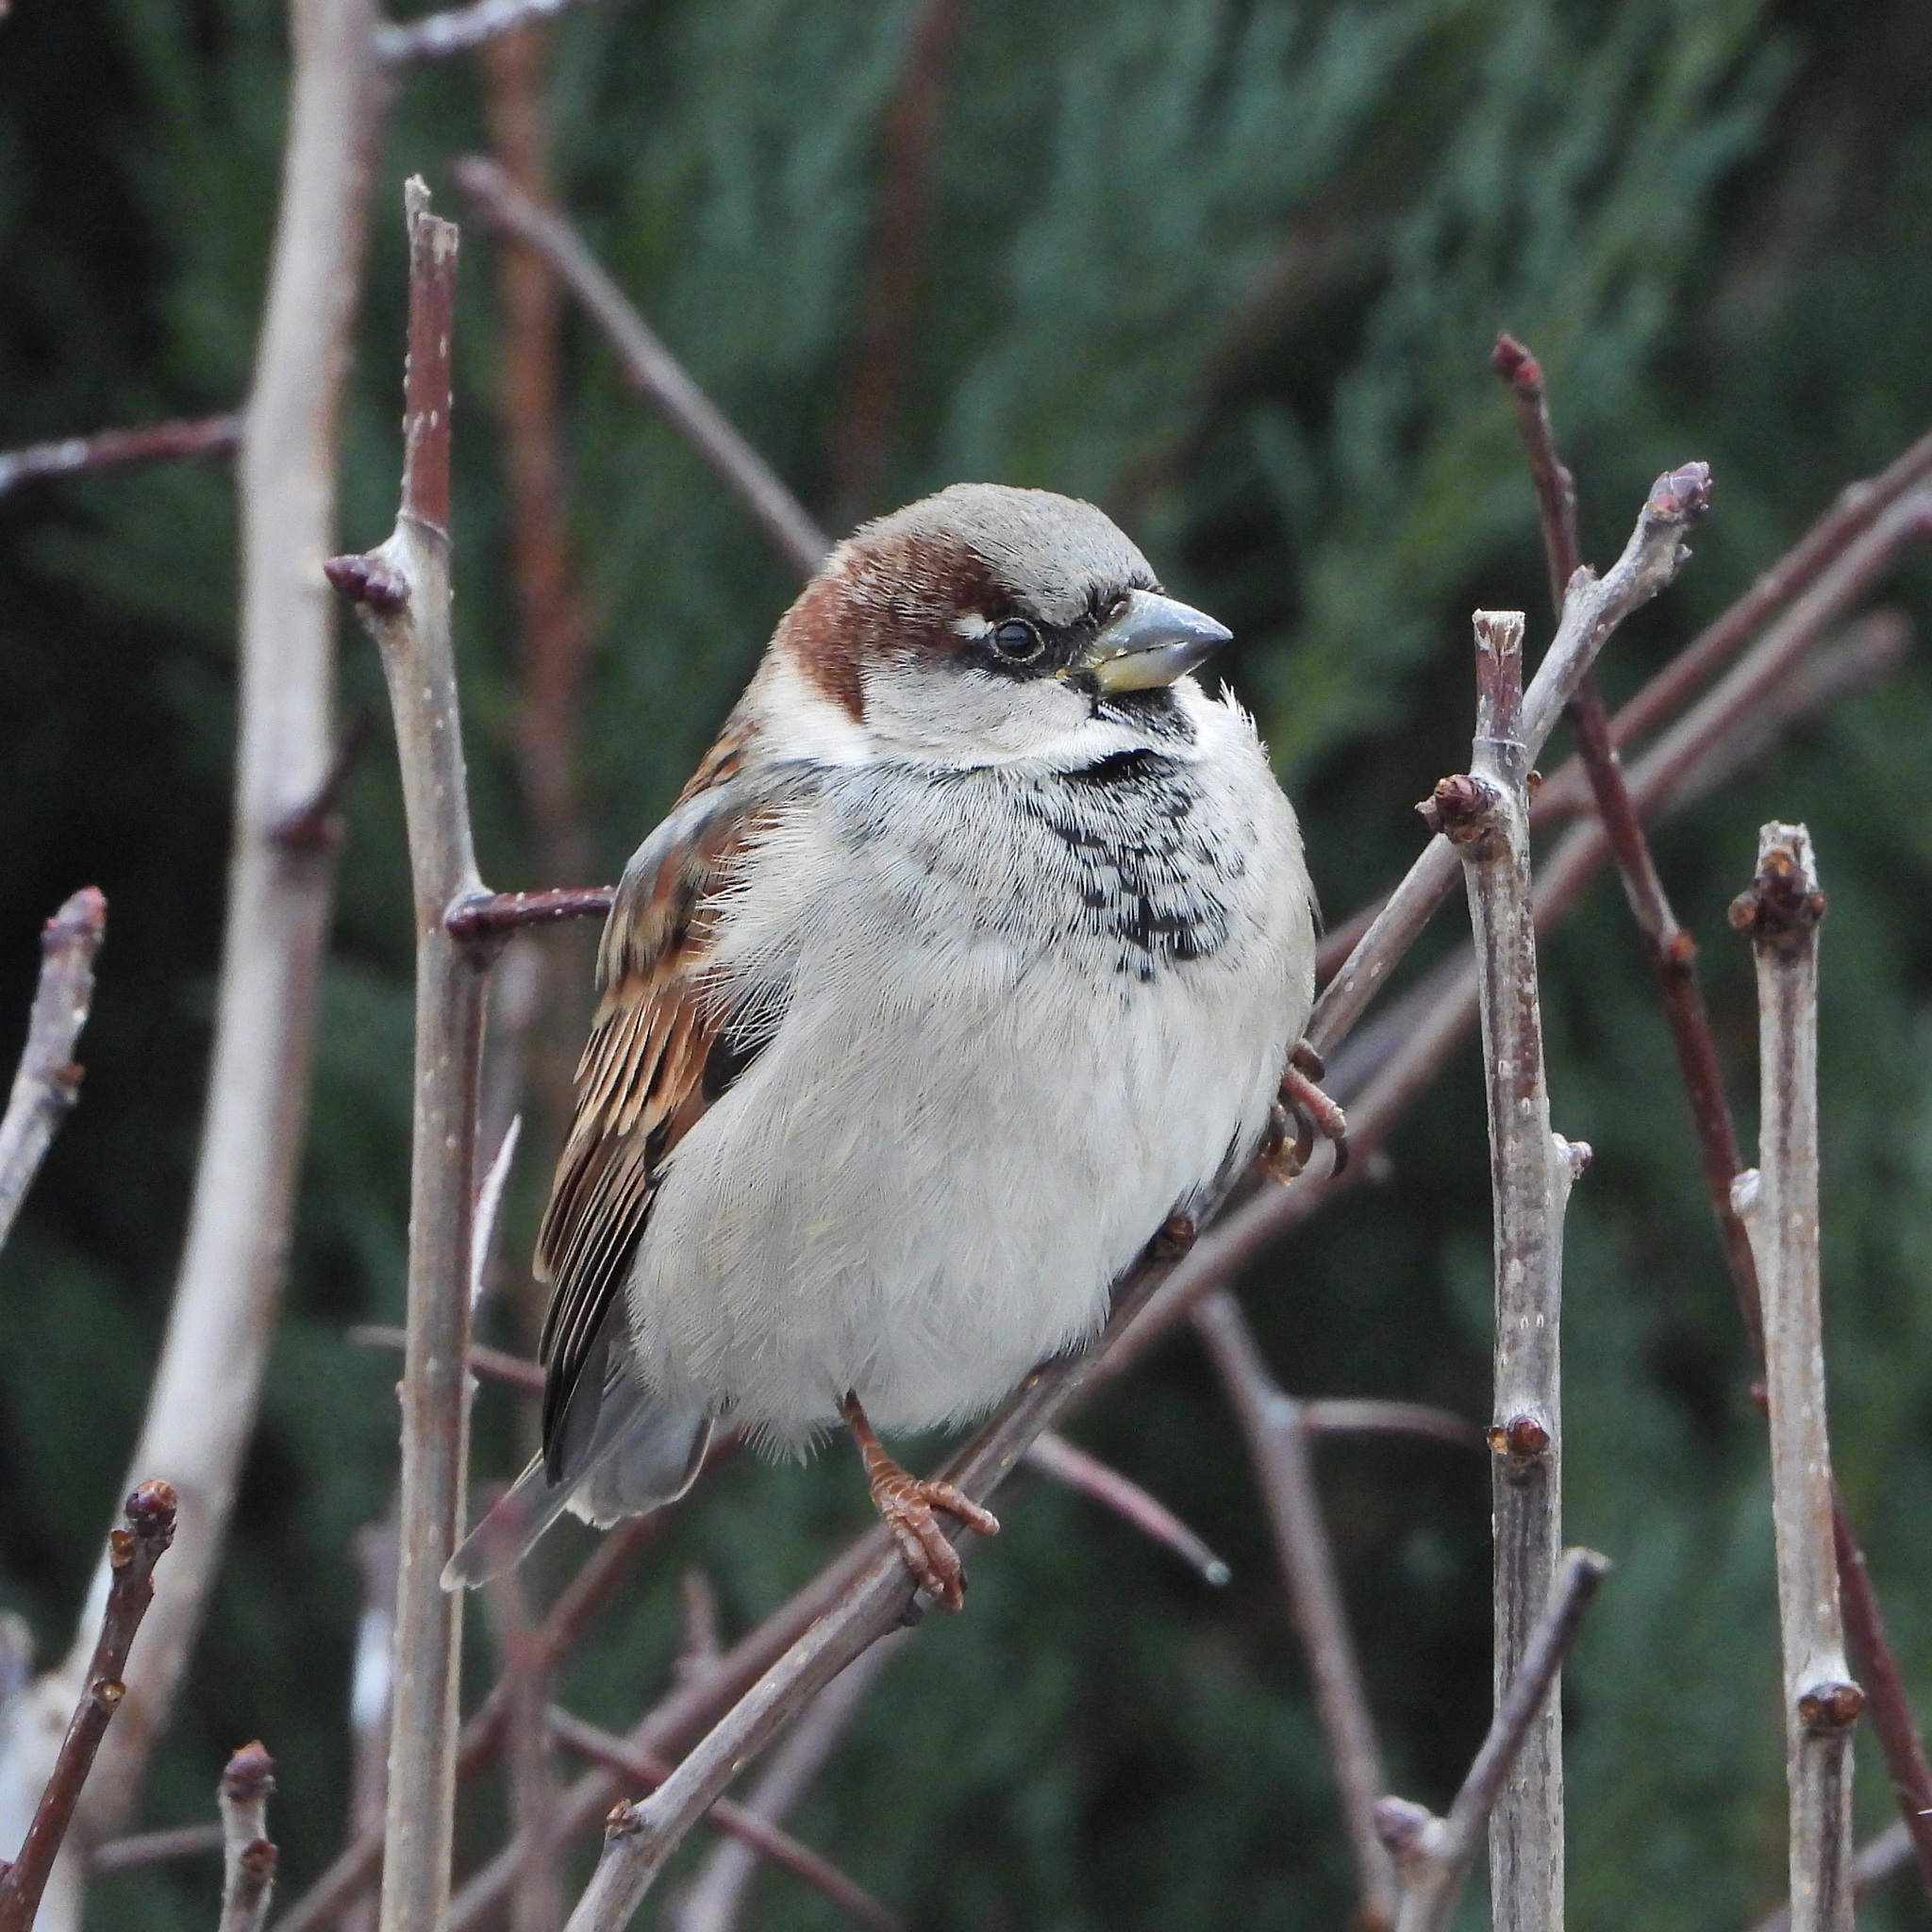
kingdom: Animalia
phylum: Chordata
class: Aves
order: Passeriformes
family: Passeridae
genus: Passer
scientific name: Passer domesticus
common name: House sparrow
